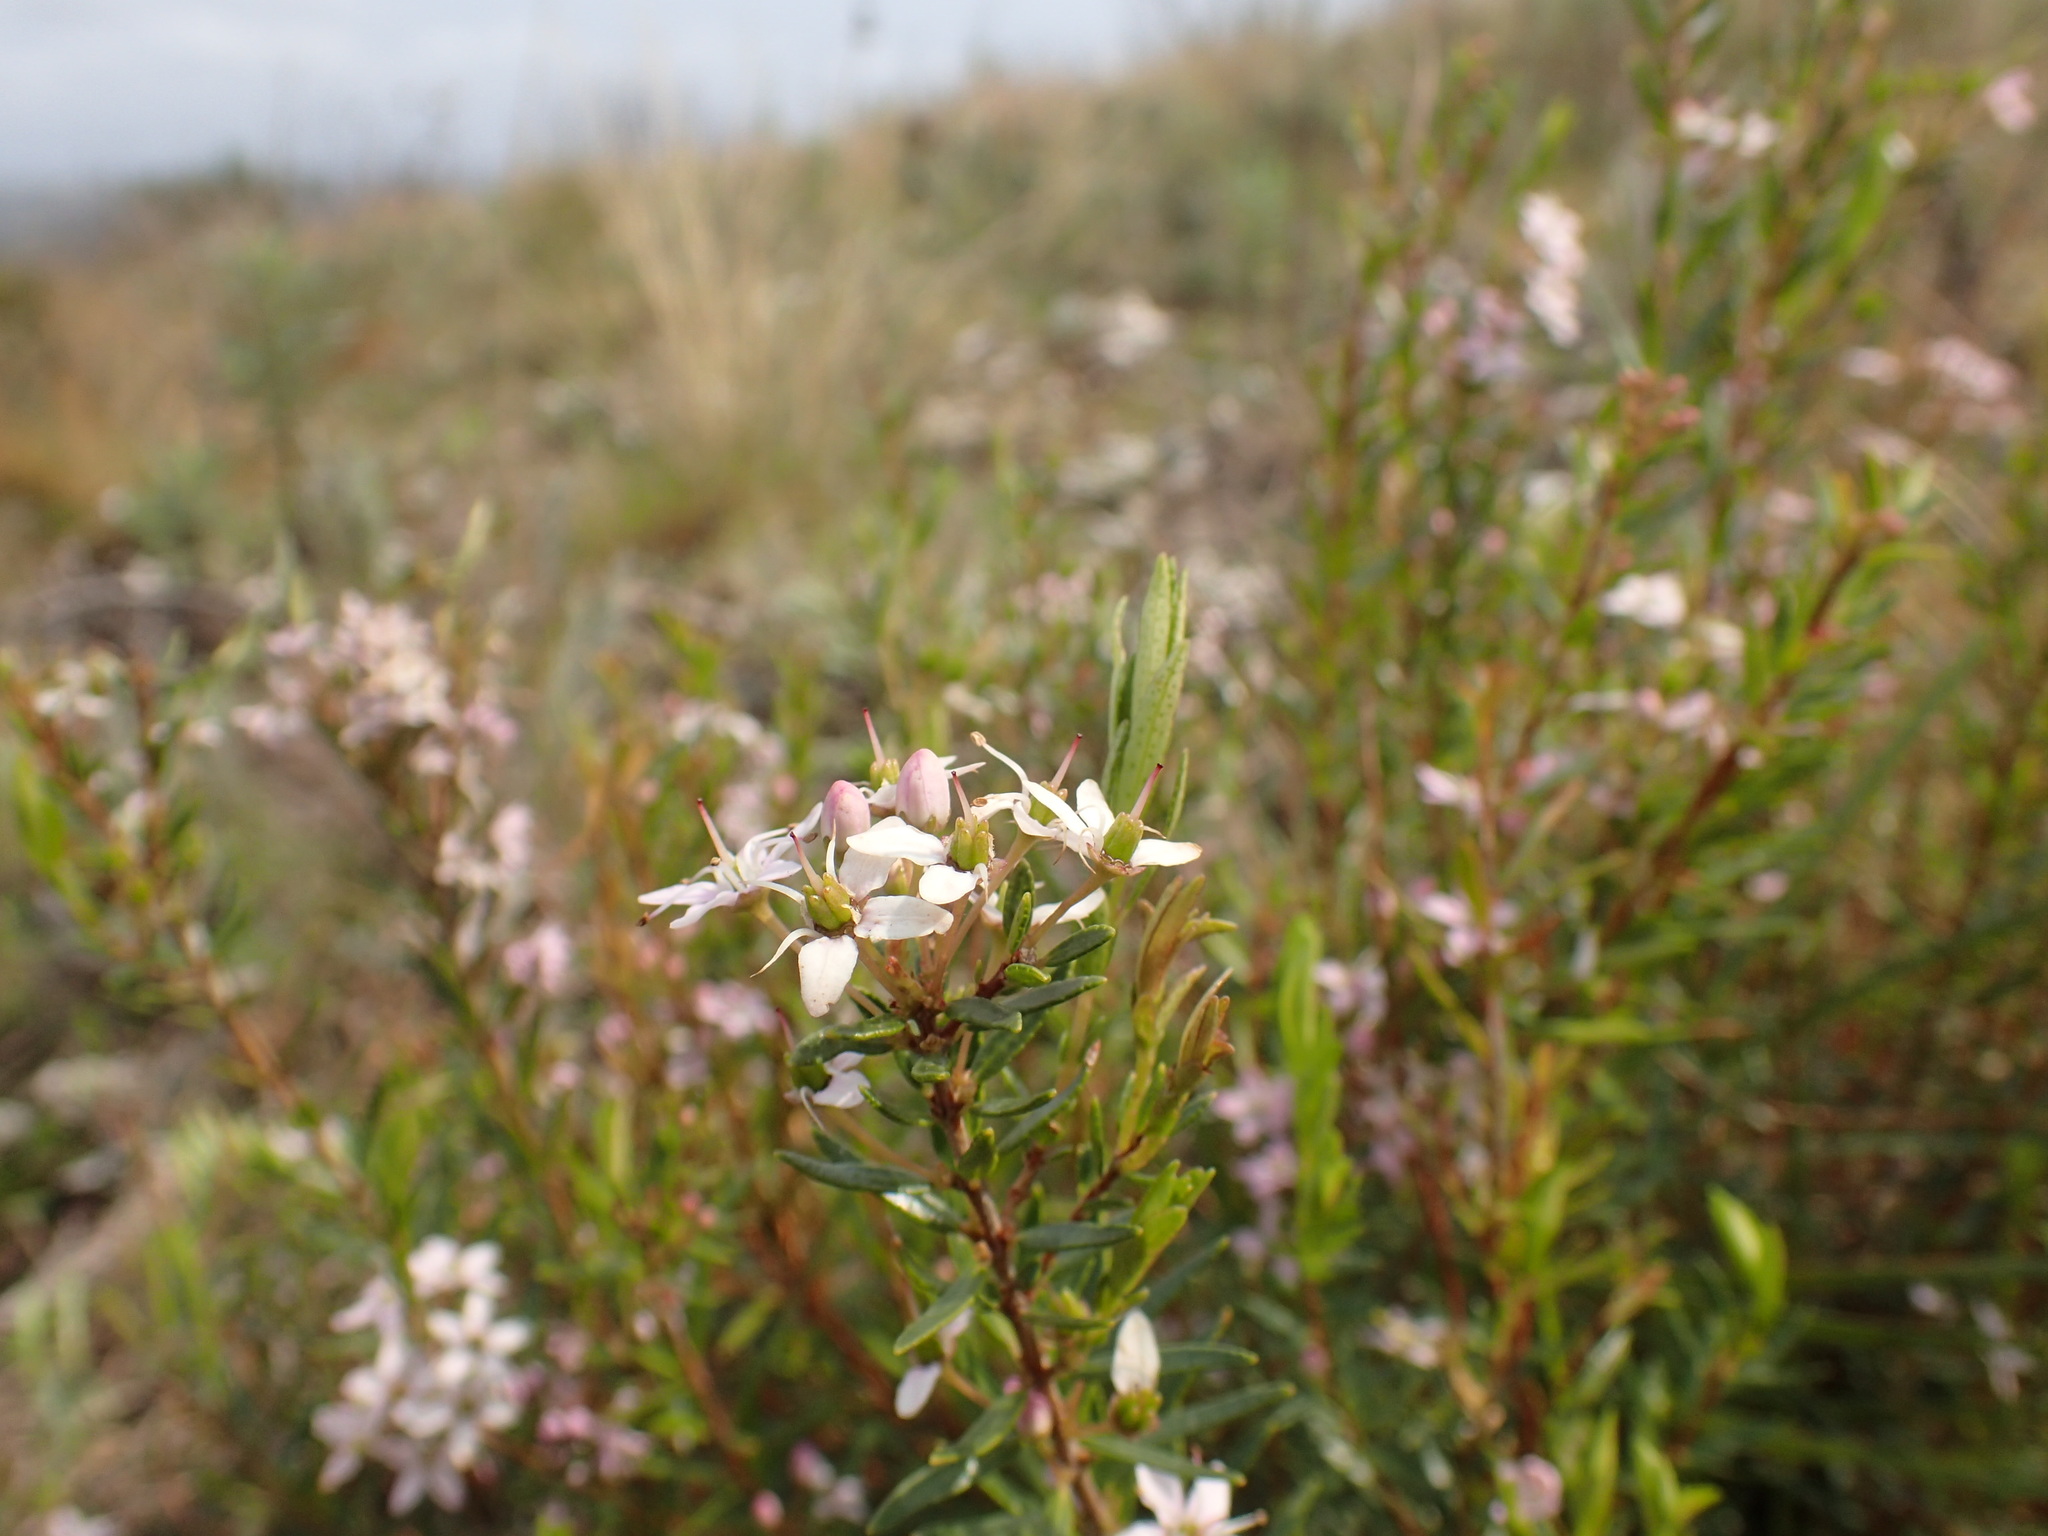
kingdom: Plantae
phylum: Tracheophyta
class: Magnoliopsida
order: Sapindales
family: Rutaceae
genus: Agathosma
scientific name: Agathosma ovata
